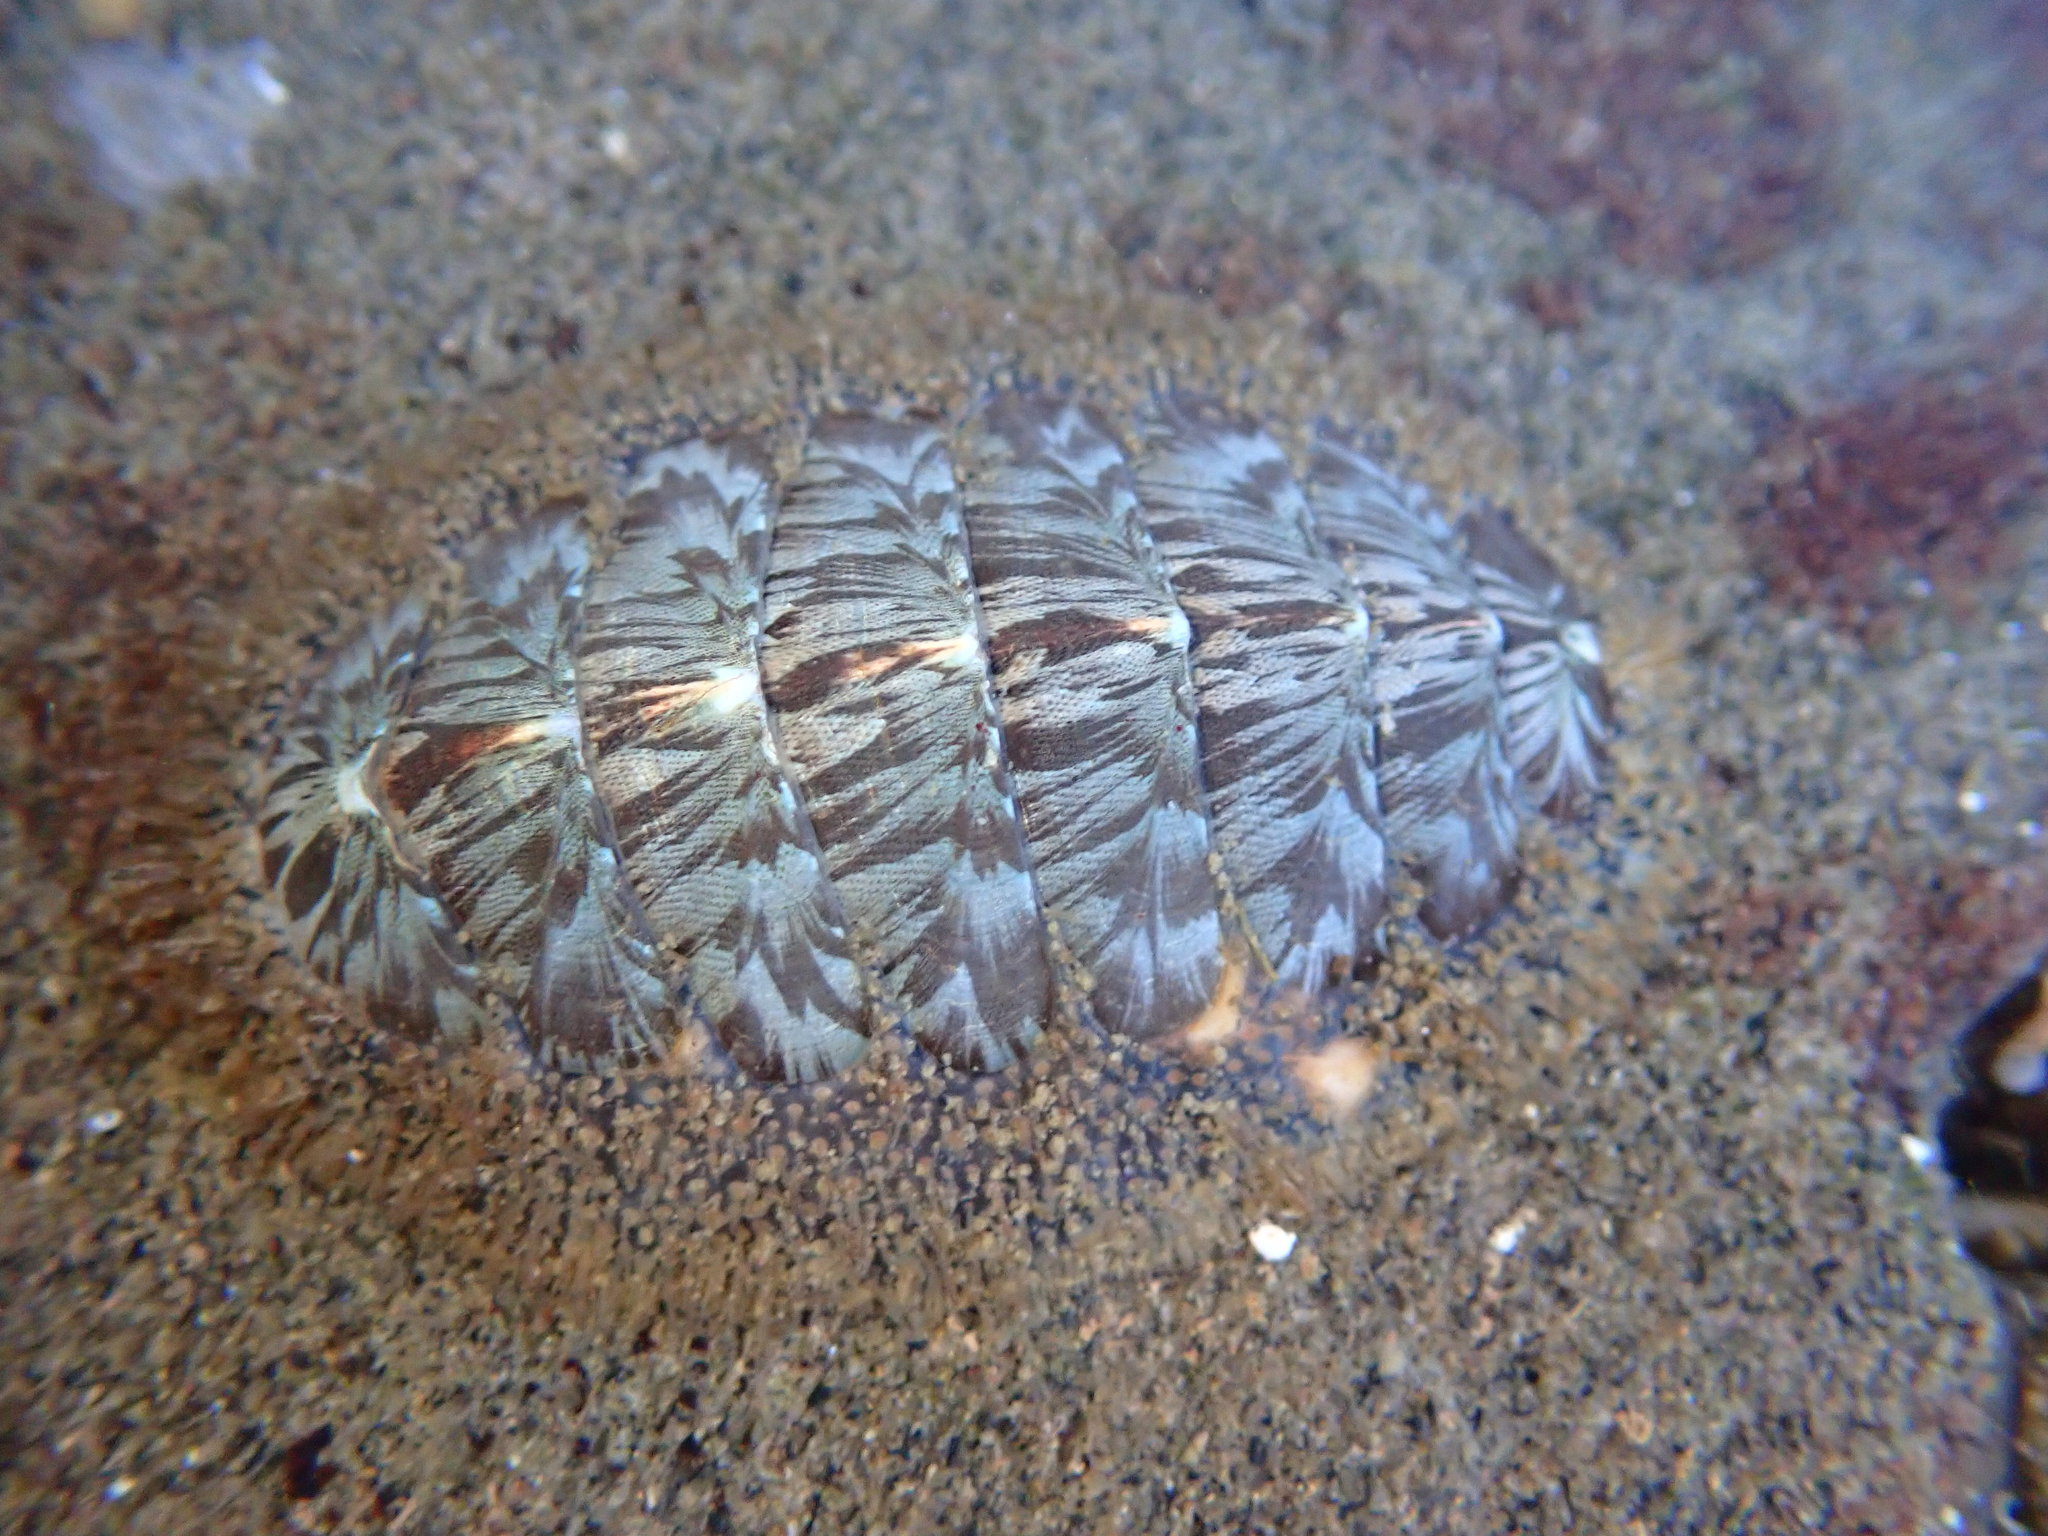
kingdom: Animalia
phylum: Mollusca
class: Polyplacophora
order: Chitonida
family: Mopaliidae
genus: Mopalia
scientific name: Mopalia lignosa
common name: Woody chiton
